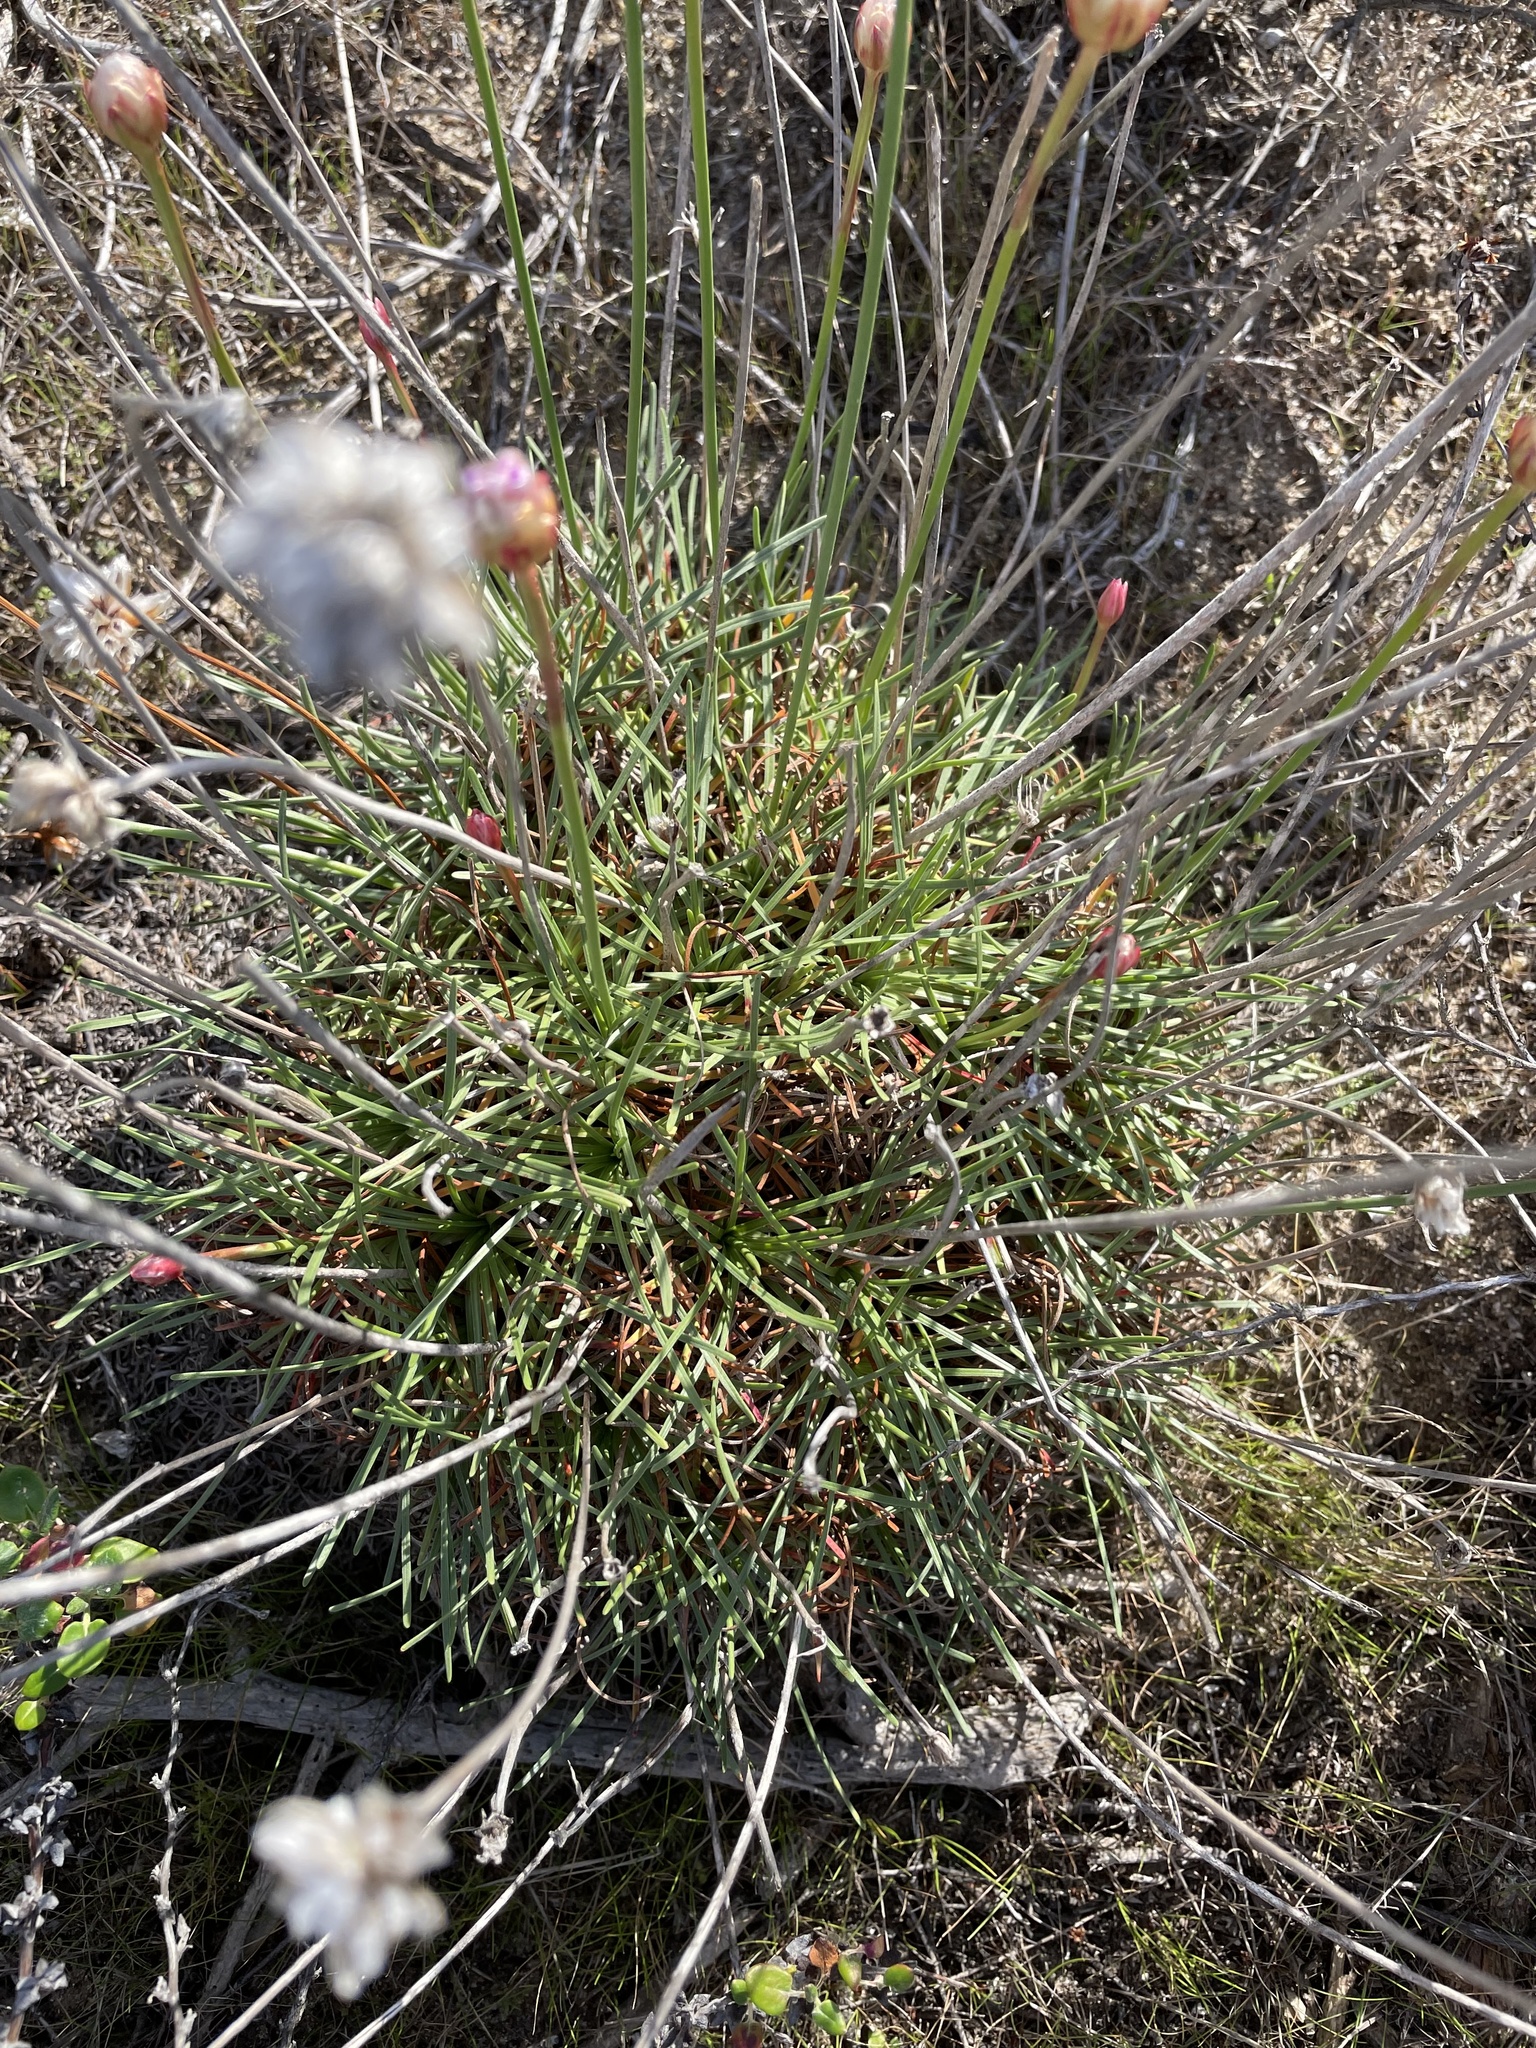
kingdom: Plantae
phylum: Tracheophyta
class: Magnoliopsida
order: Caryophyllales
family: Plumbaginaceae
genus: Armeria
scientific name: Armeria maritima
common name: Thrift
